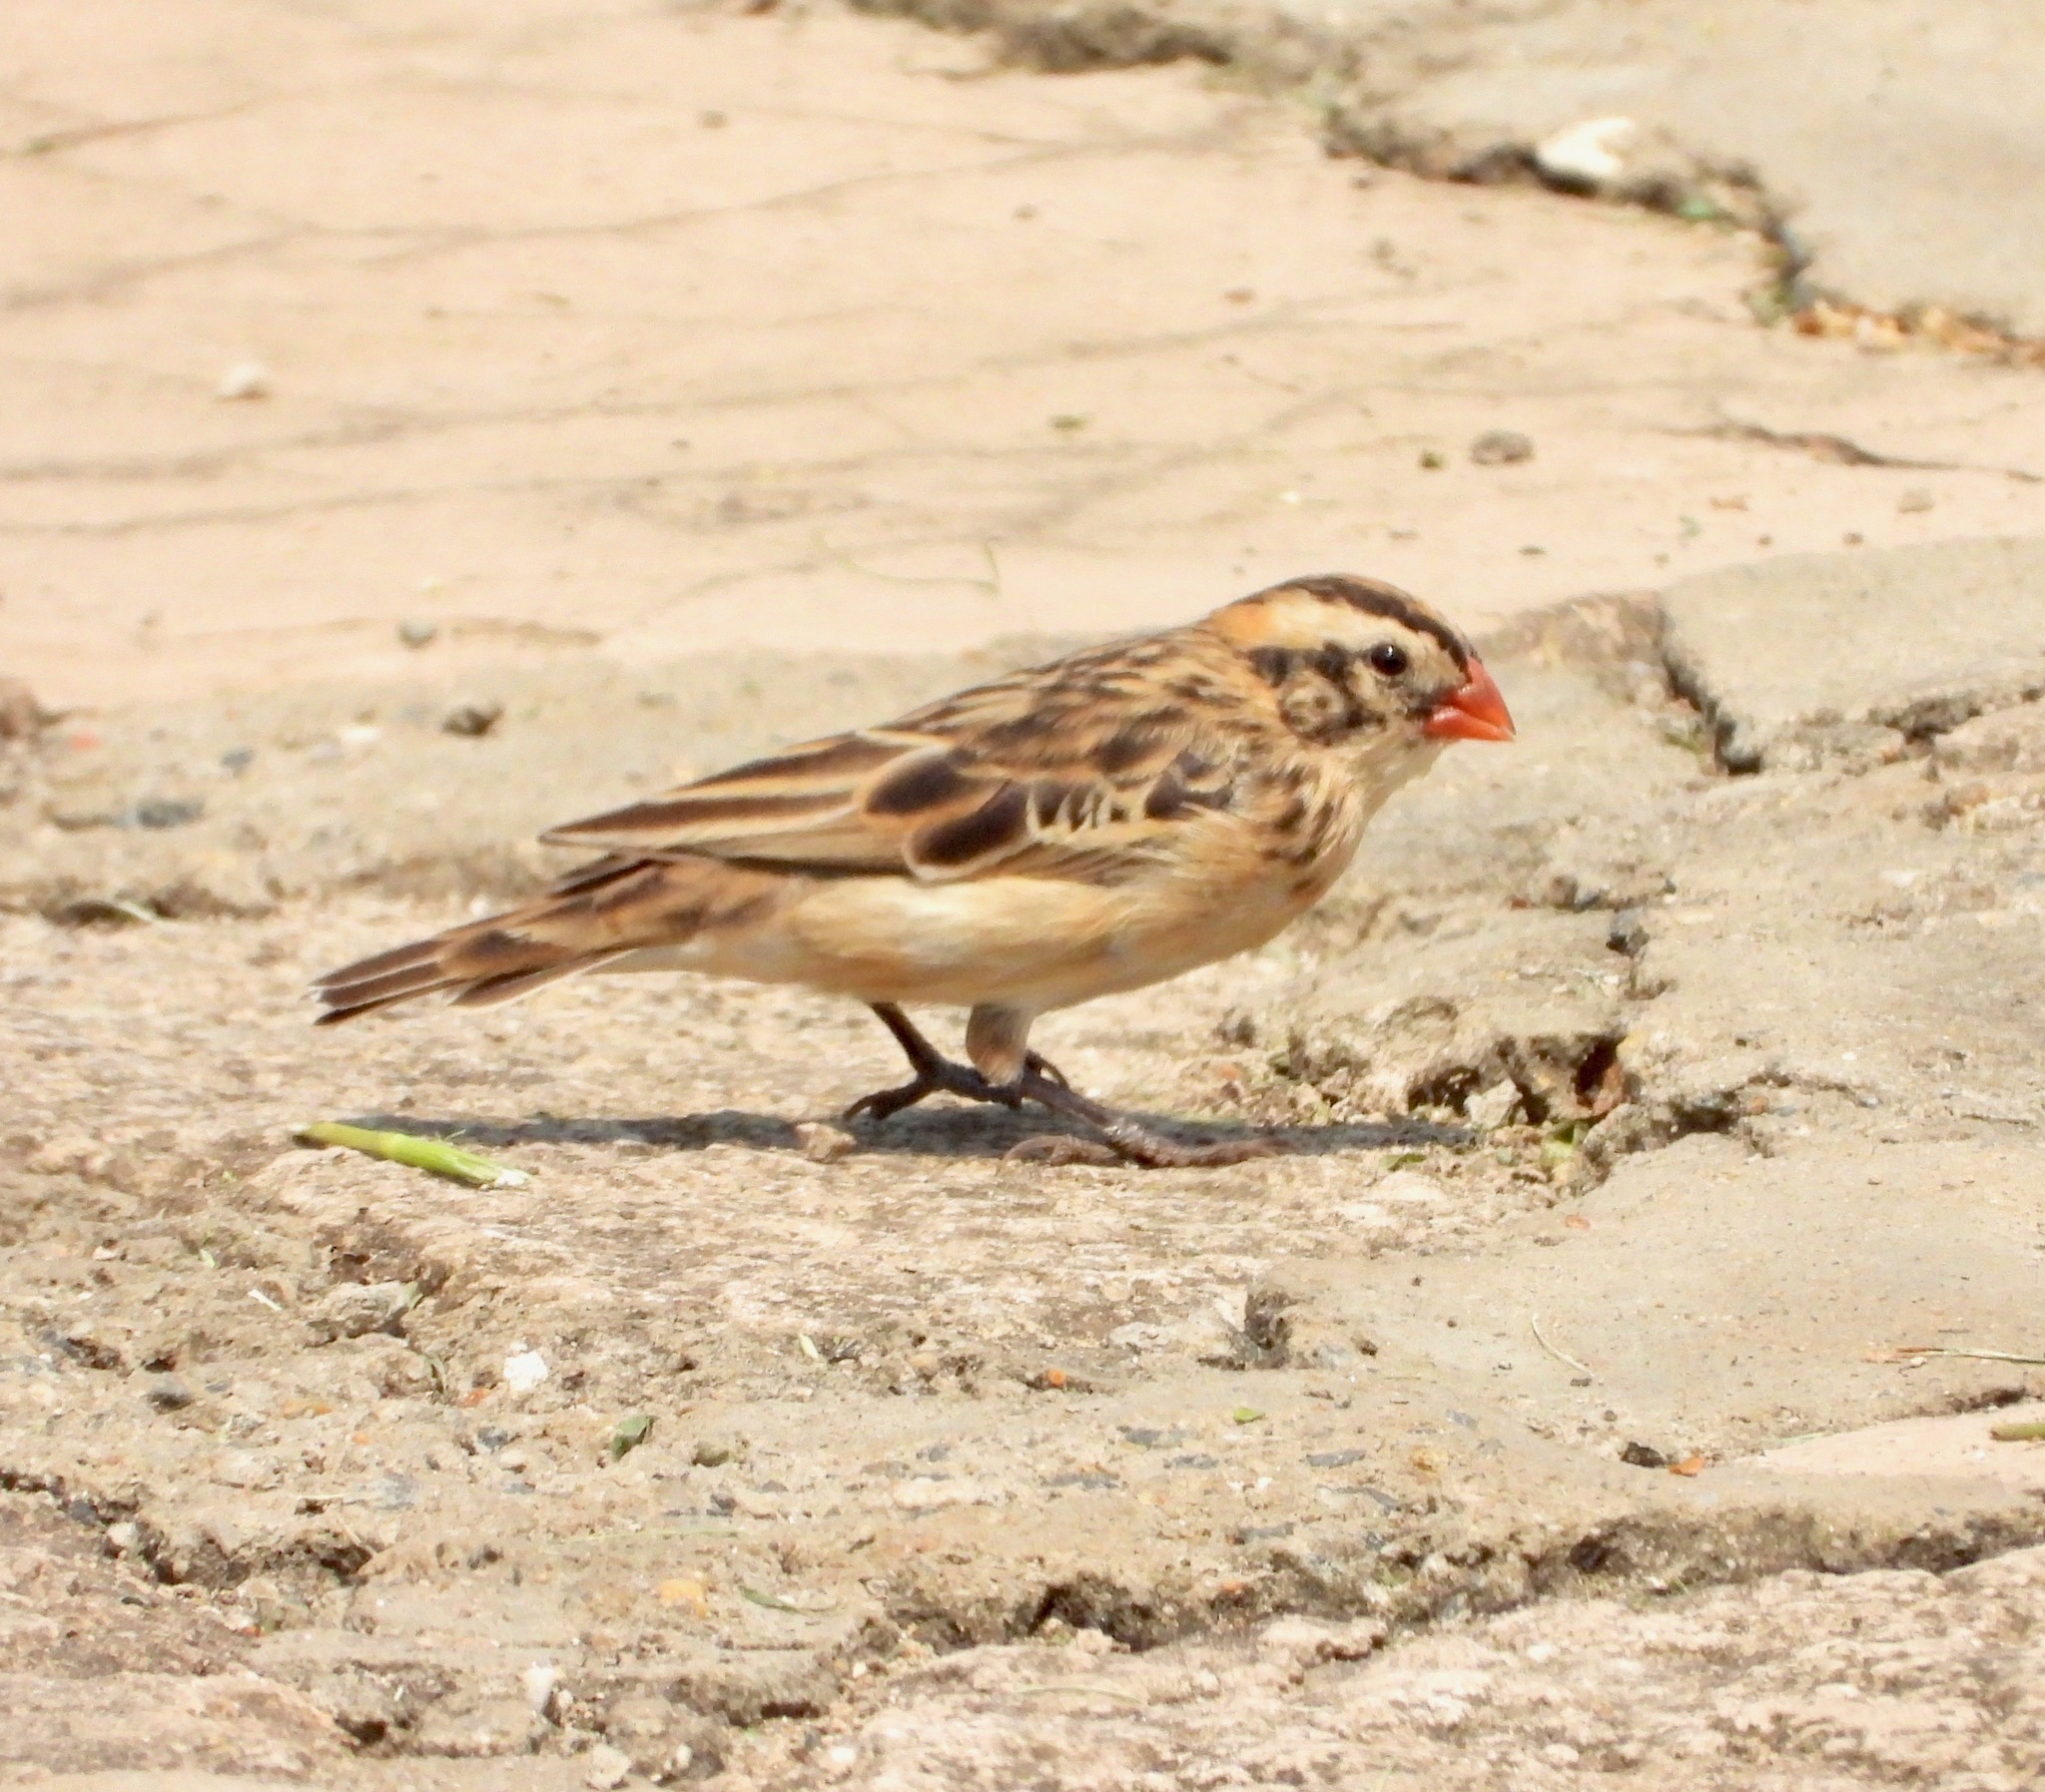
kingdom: Animalia
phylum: Chordata
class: Aves
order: Passeriformes
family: Viduidae
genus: Vidua
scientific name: Vidua macroura
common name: Pin-tailed whydah
